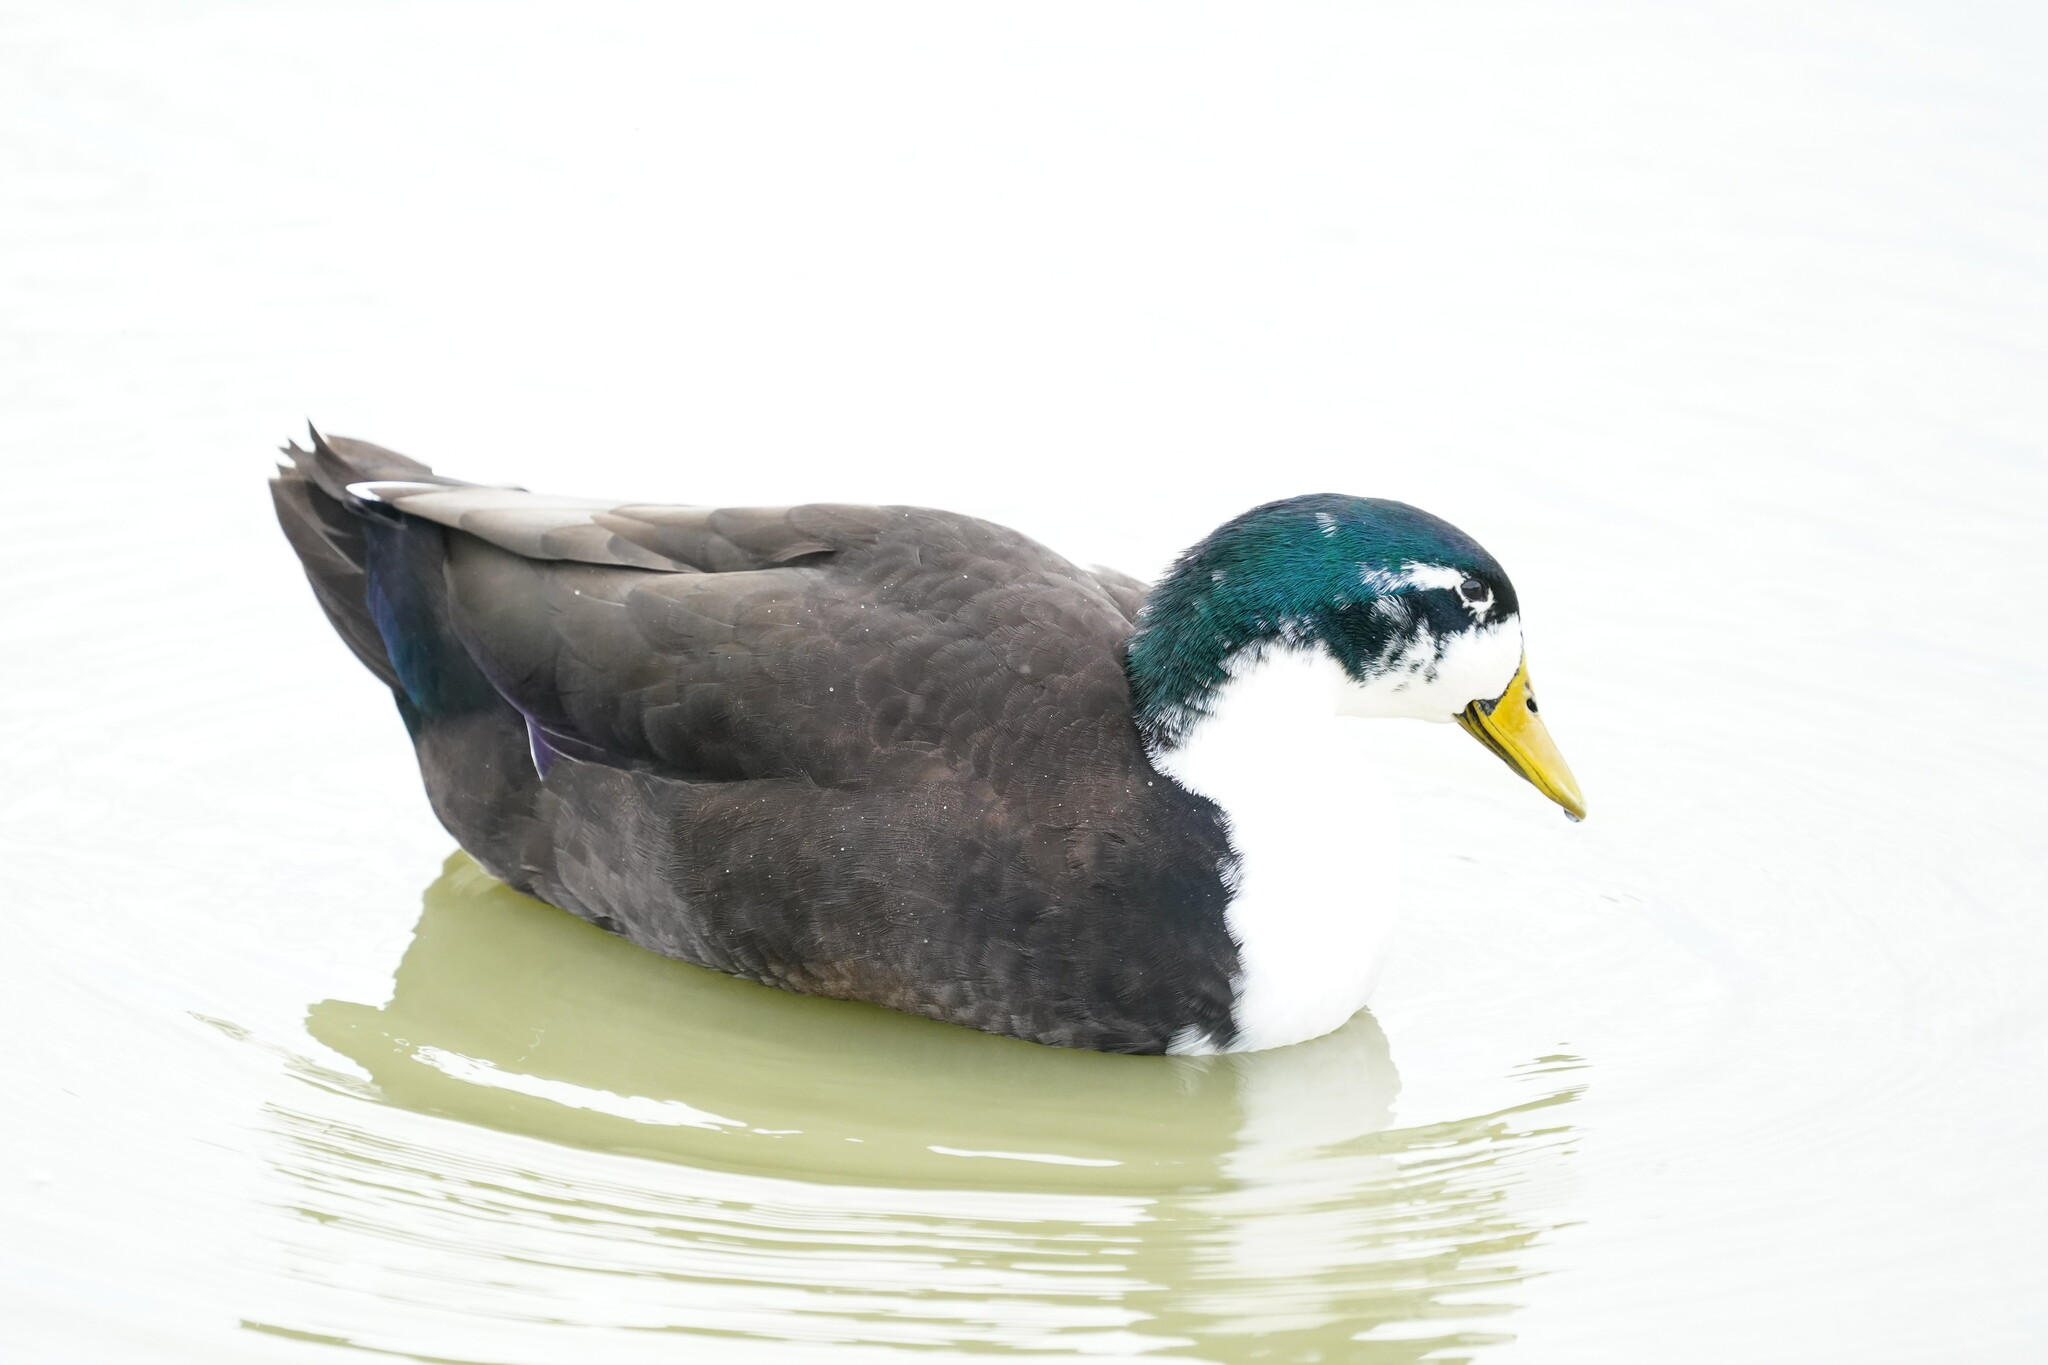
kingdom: Animalia
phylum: Chordata
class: Aves
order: Anseriformes
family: Anatidae
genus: Anas
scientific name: Anas platyrhynchos
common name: Mallard
